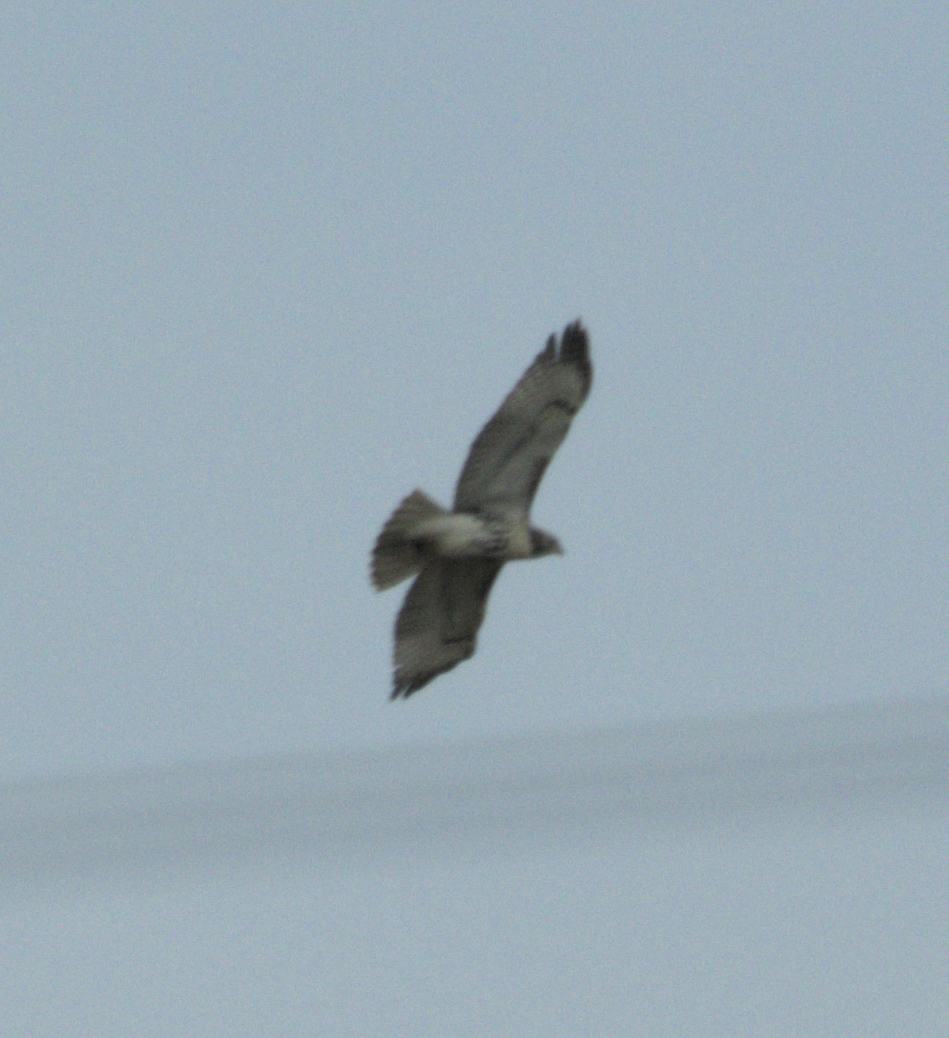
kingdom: Animalia
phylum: Chordata
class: Aves
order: Accipitriformes
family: Accipitridae
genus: Buteo
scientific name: Buteo jamaicensis
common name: Red-tailed hawk
